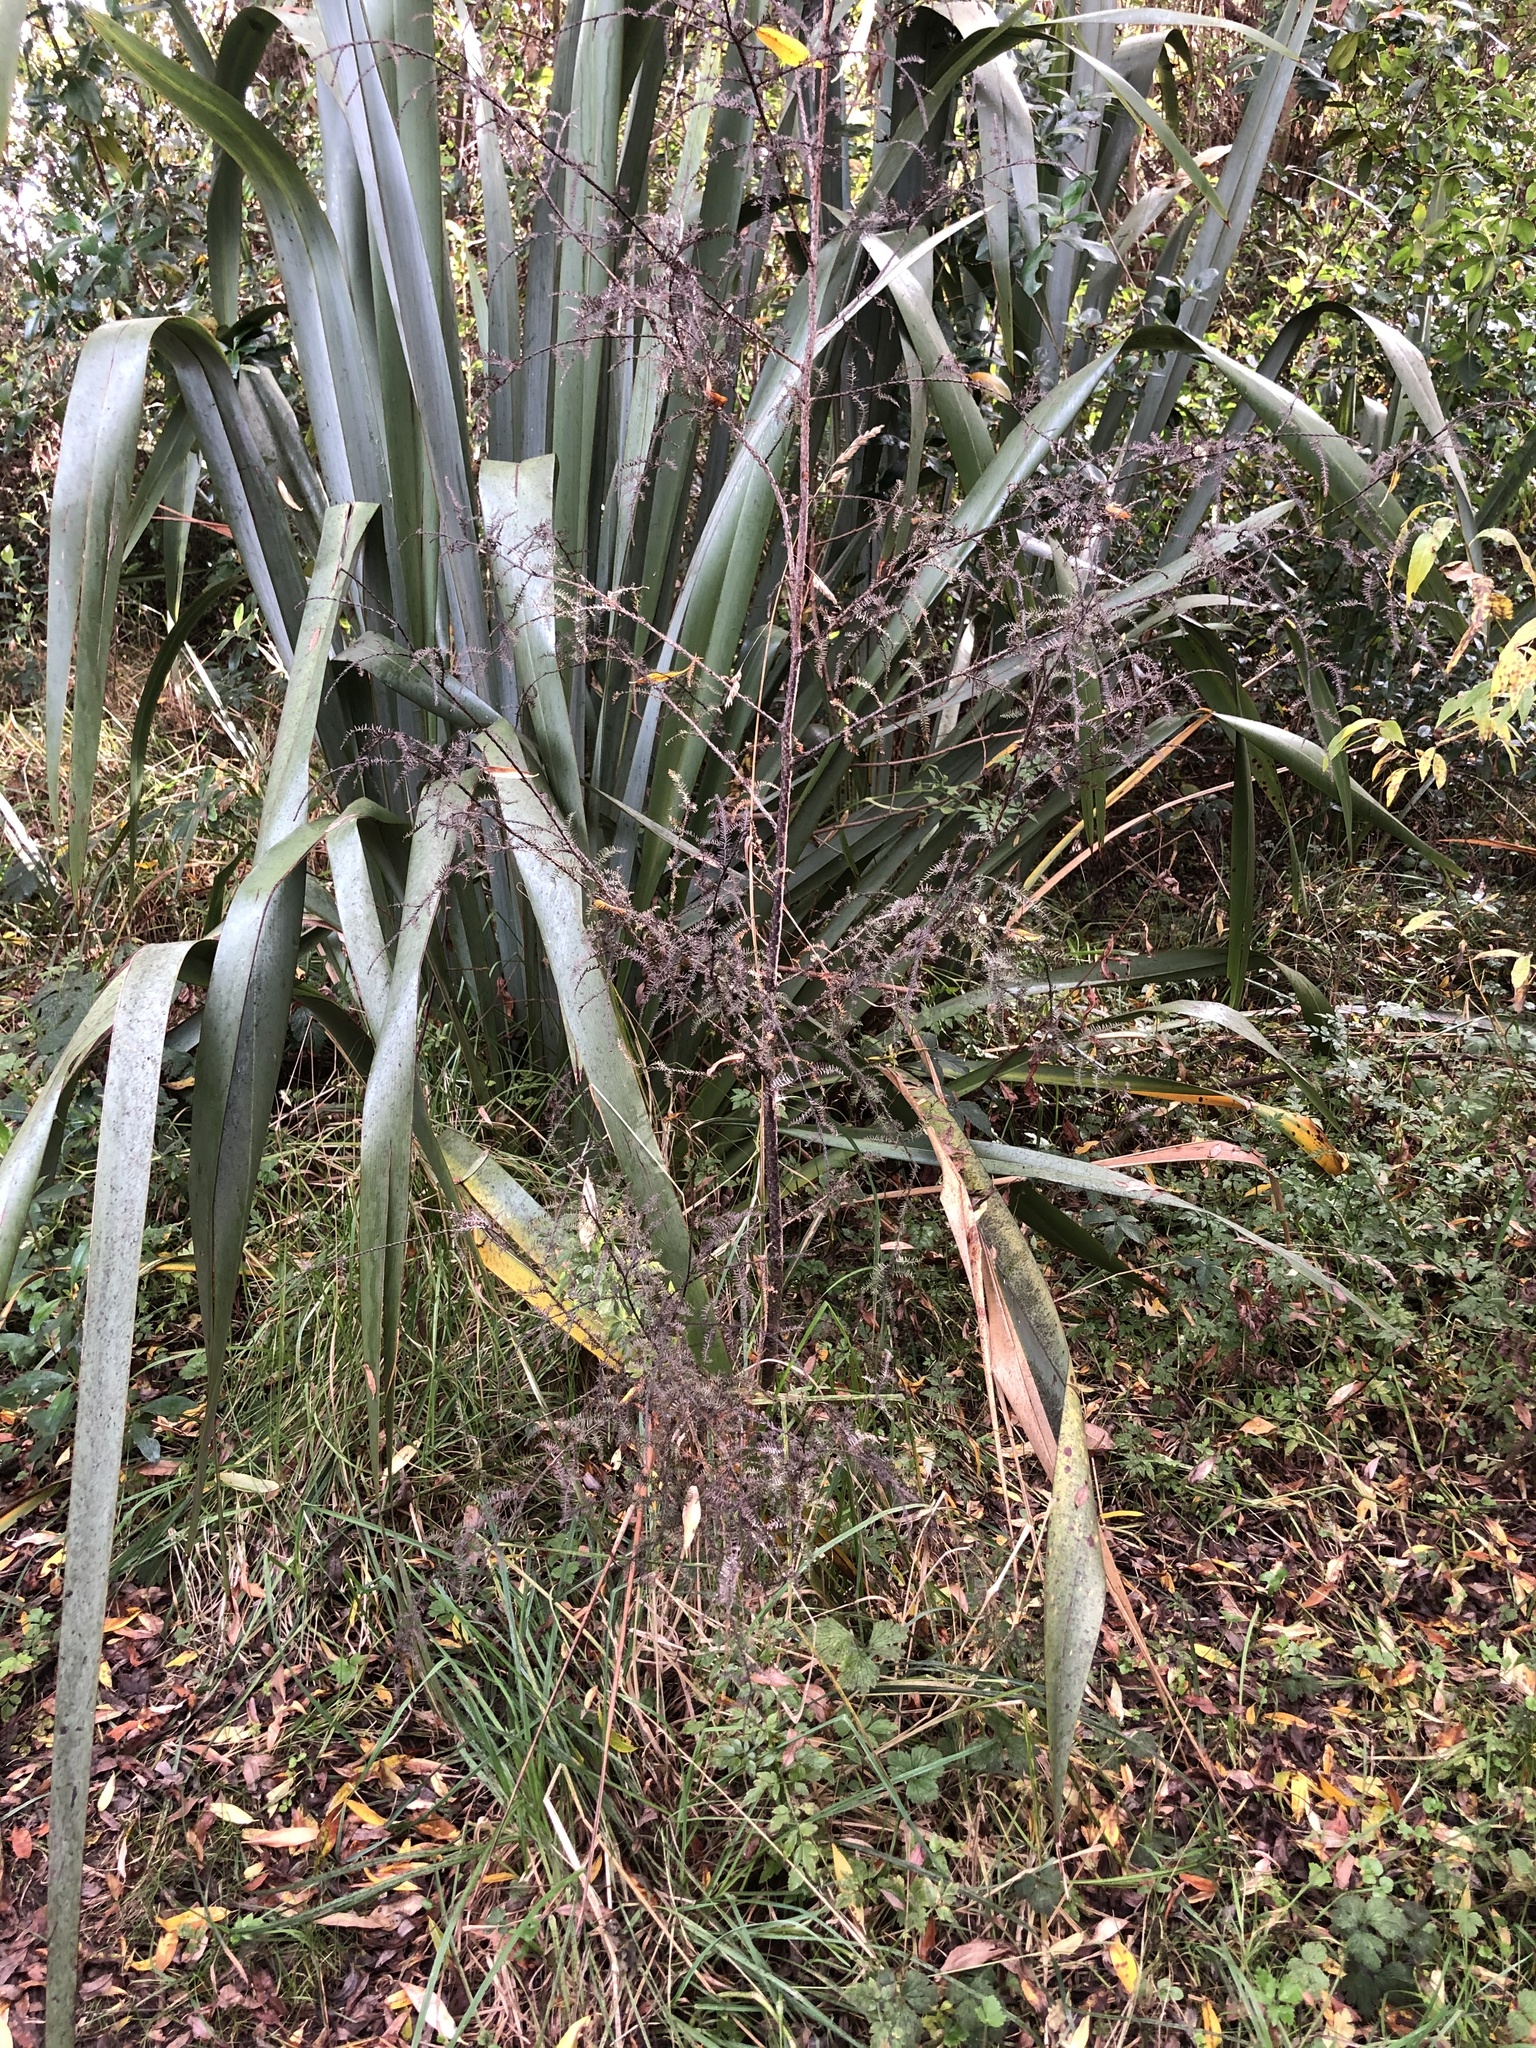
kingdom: Plantae
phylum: Tracheophyta
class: Pinopsida
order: Pinales
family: Podocarpaceae
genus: Dacrycarpus
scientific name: Dacrycarpus dacrydioides
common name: White pine
